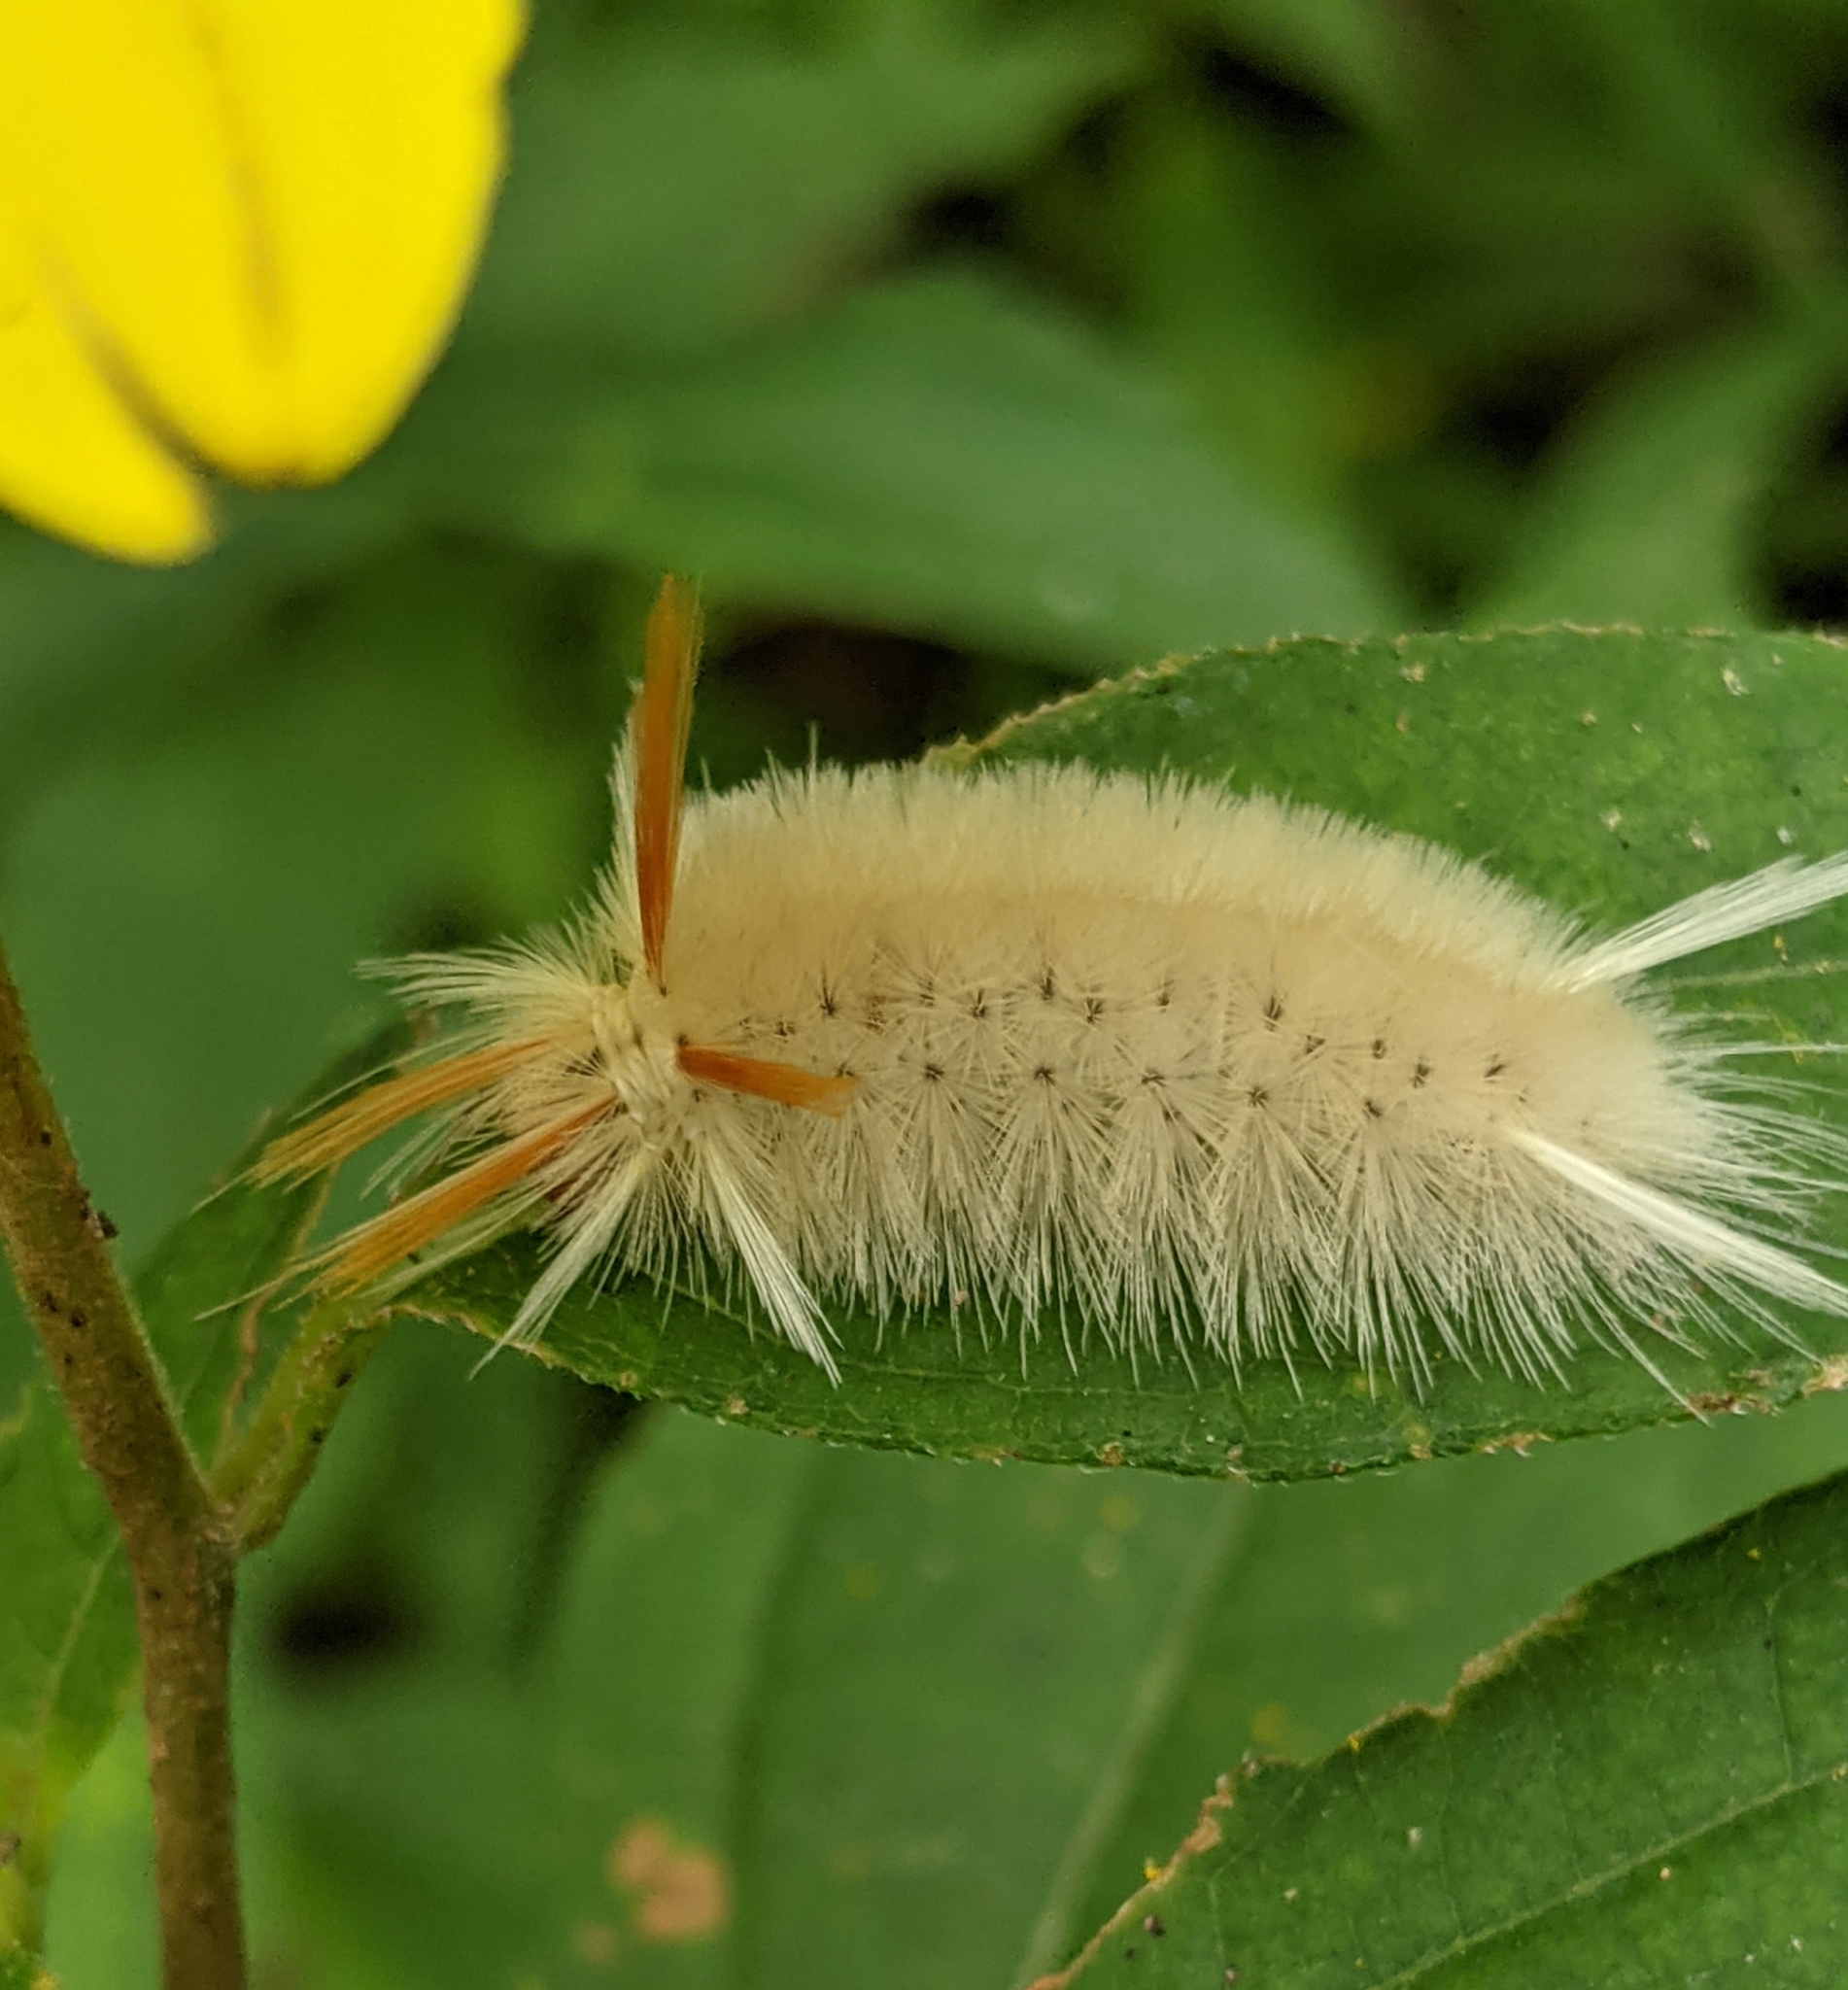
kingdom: Animalia
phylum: Arthropoda
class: Insecta
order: Lepidoptera
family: Erebidae
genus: Halysidota
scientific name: Halysidota harrisii
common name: Sycamore tussock moth
